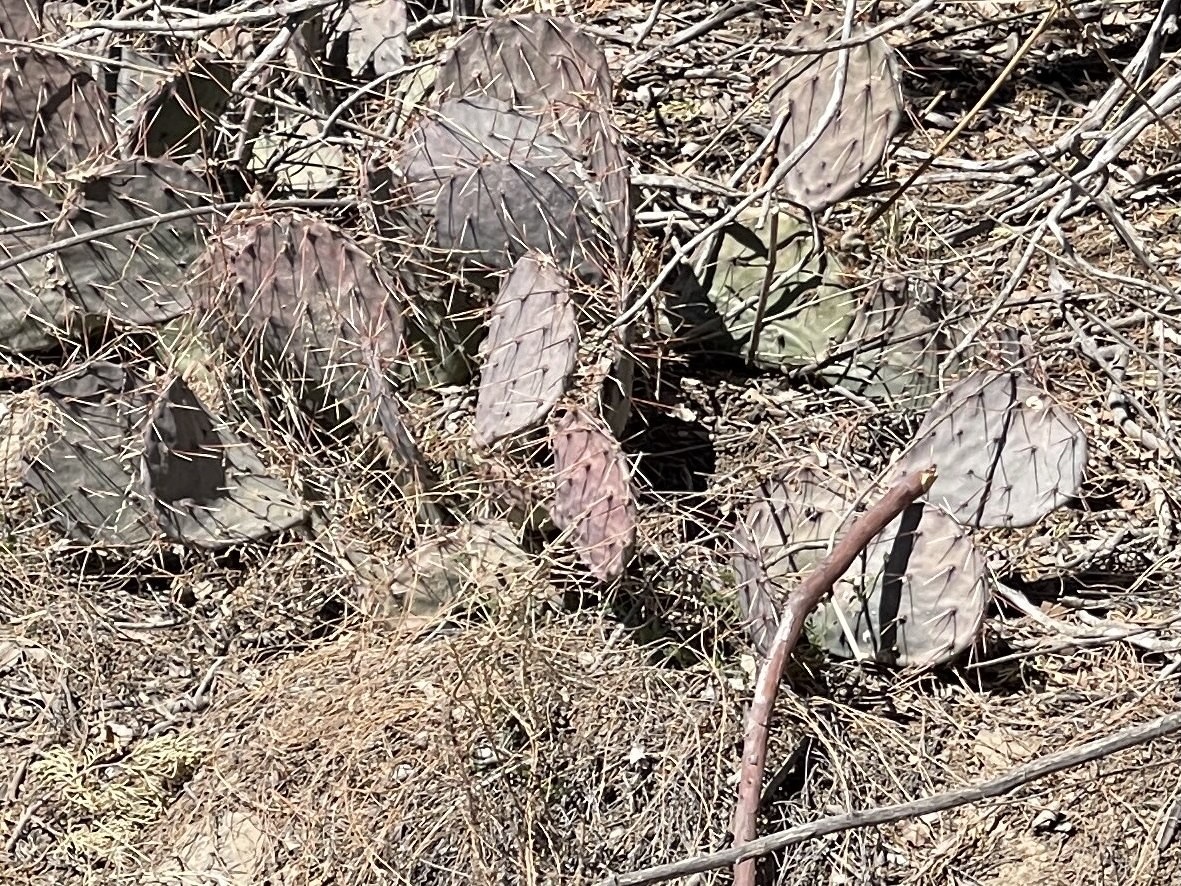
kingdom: Plantae
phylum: Tracheophyta
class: Magnoliopsida
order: Caryophyllales
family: Cactaceae
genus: Opuntia
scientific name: Opuntia phaeacantha
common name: New mexico prickly-pear
